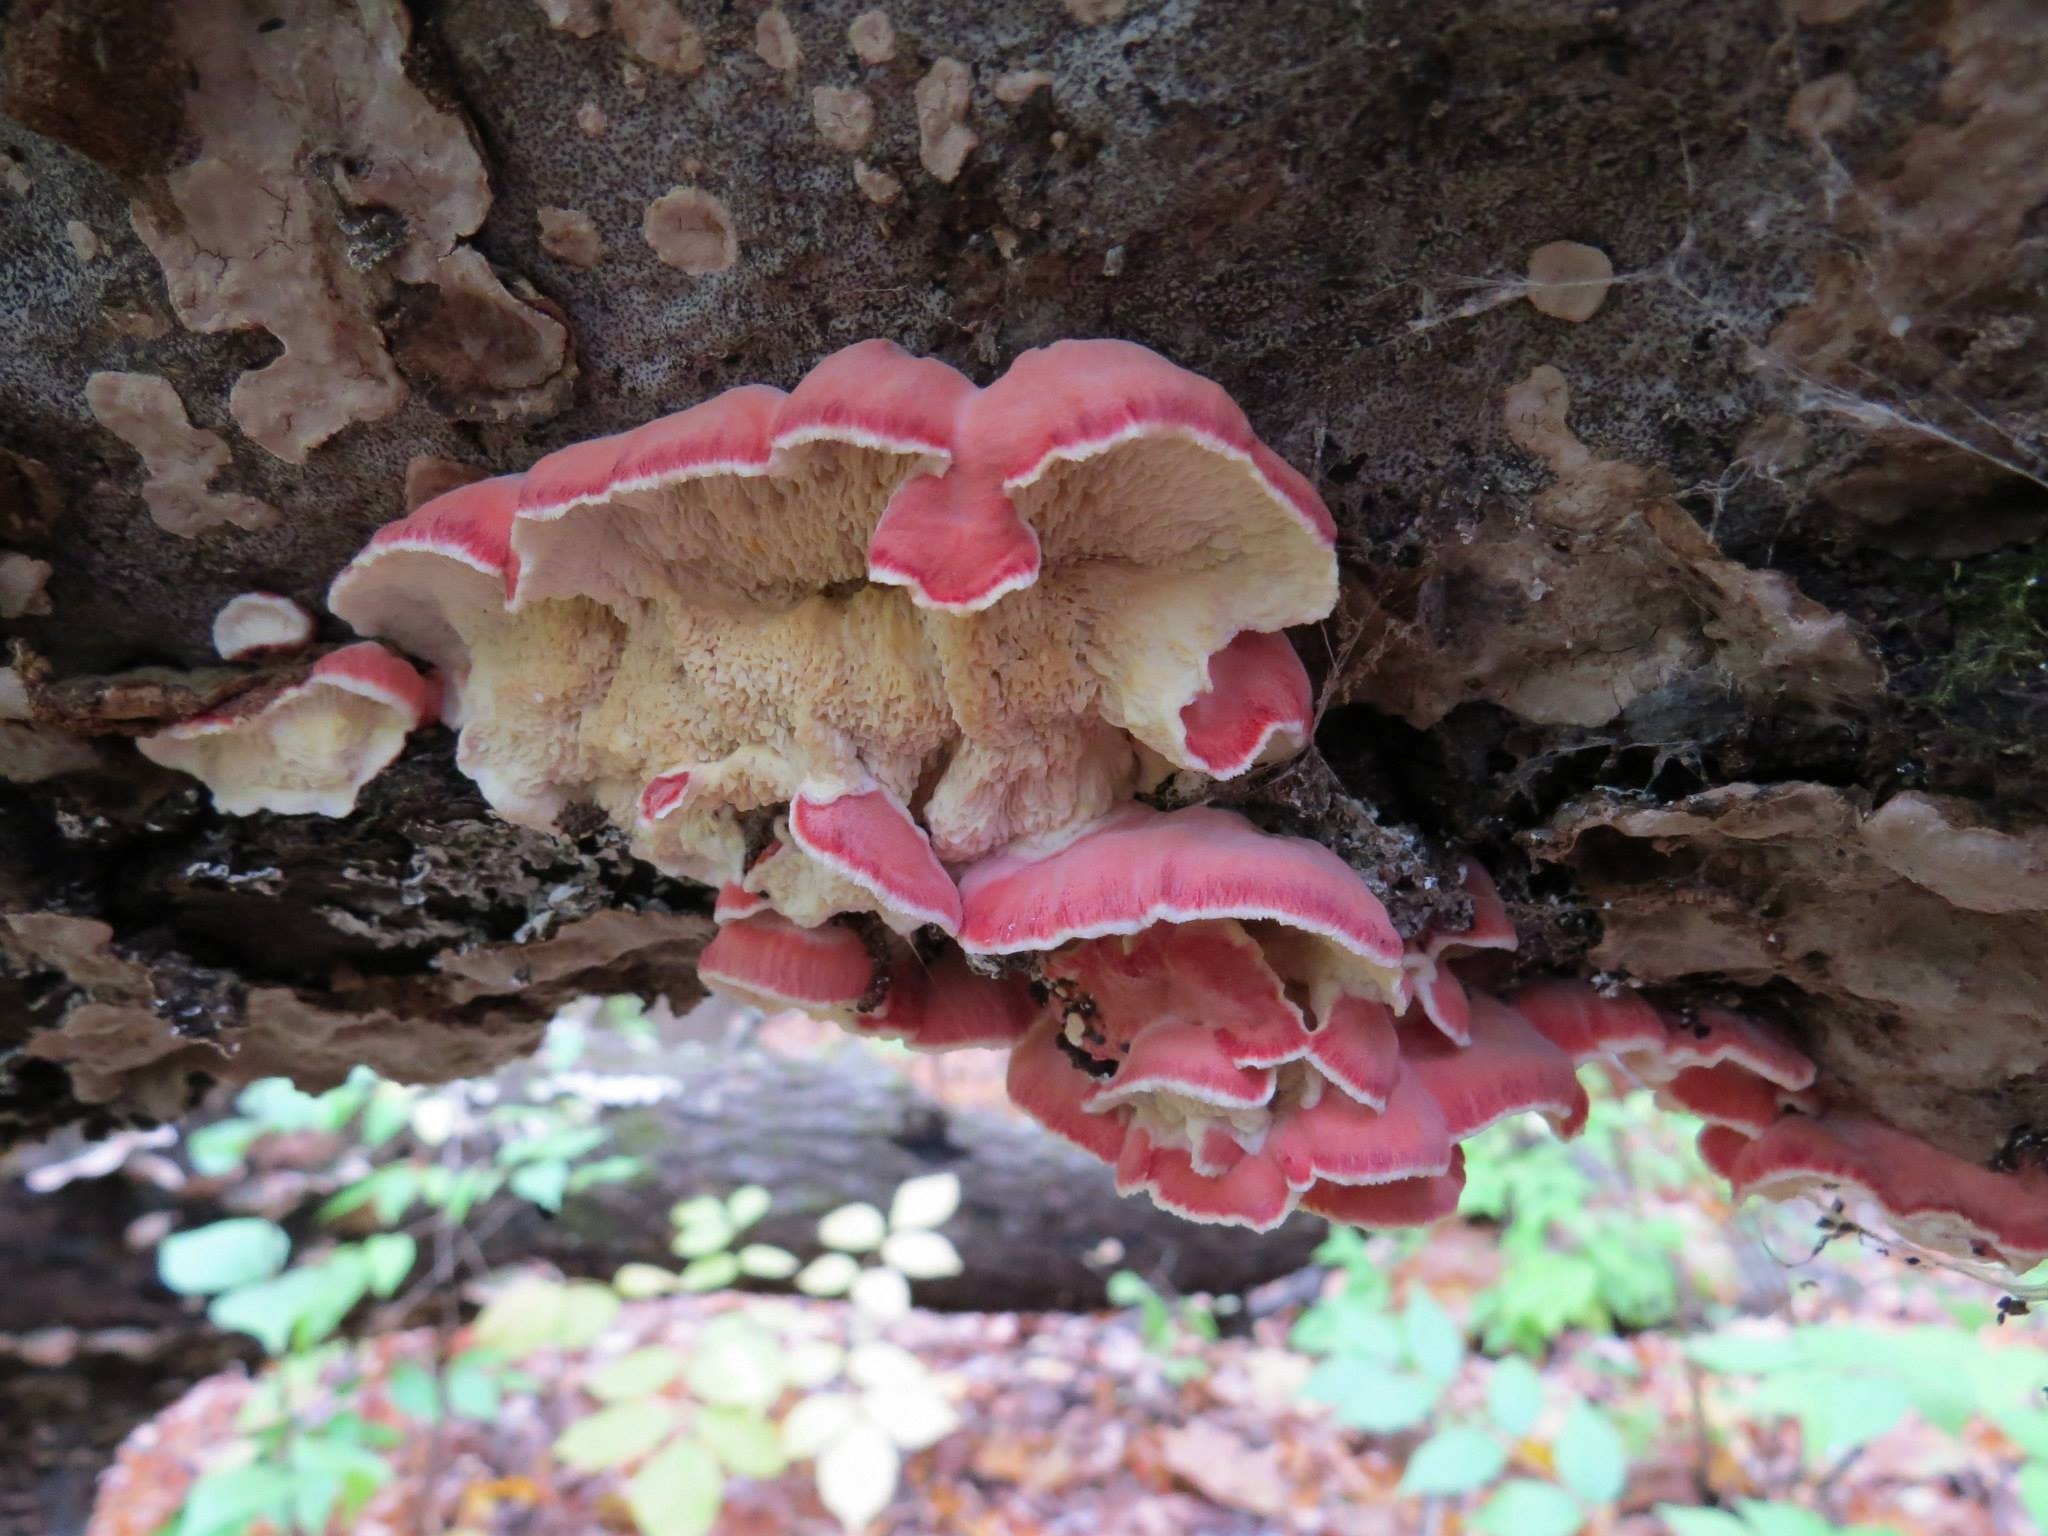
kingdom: Fungi
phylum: Basidiomycota
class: Agaricomycetes
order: Polyporales
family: Irpicaceae
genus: Byssomerulius
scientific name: Byssomerulius incarnatus
